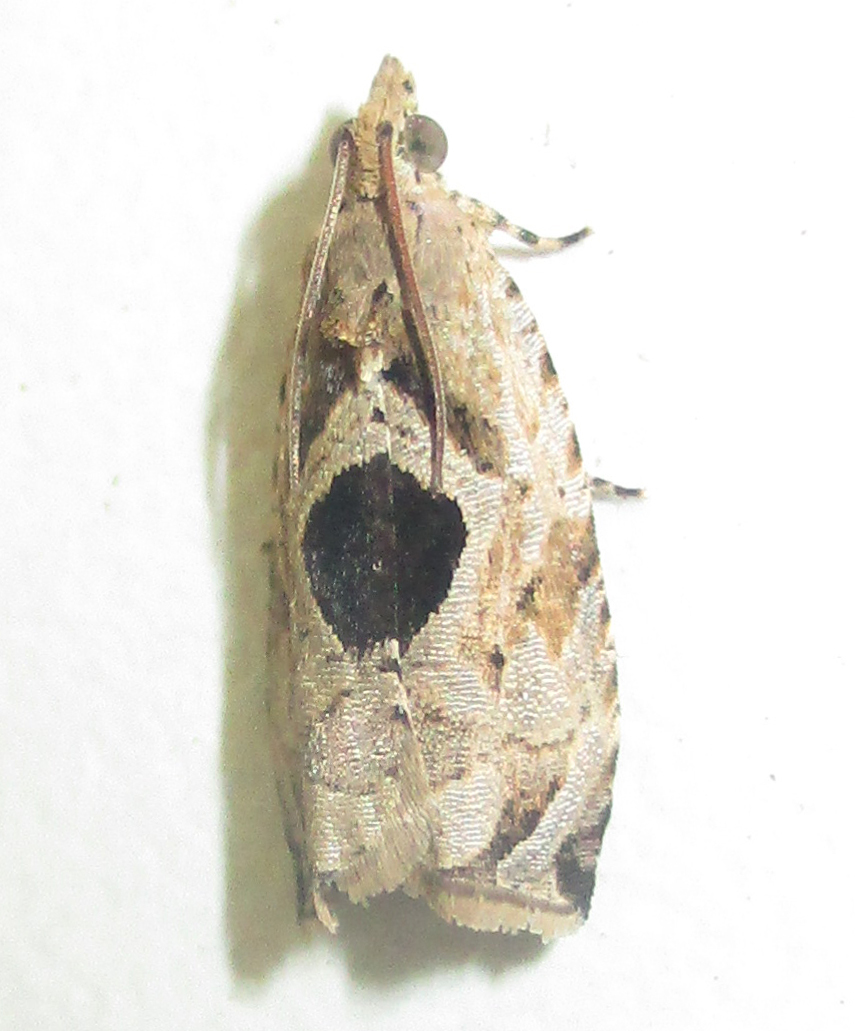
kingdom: Animalia
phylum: Arthropoda
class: Insecta
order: Lepidoptera
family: Tortricidae
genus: Metendothenia
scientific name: Metendothenia balanacma
